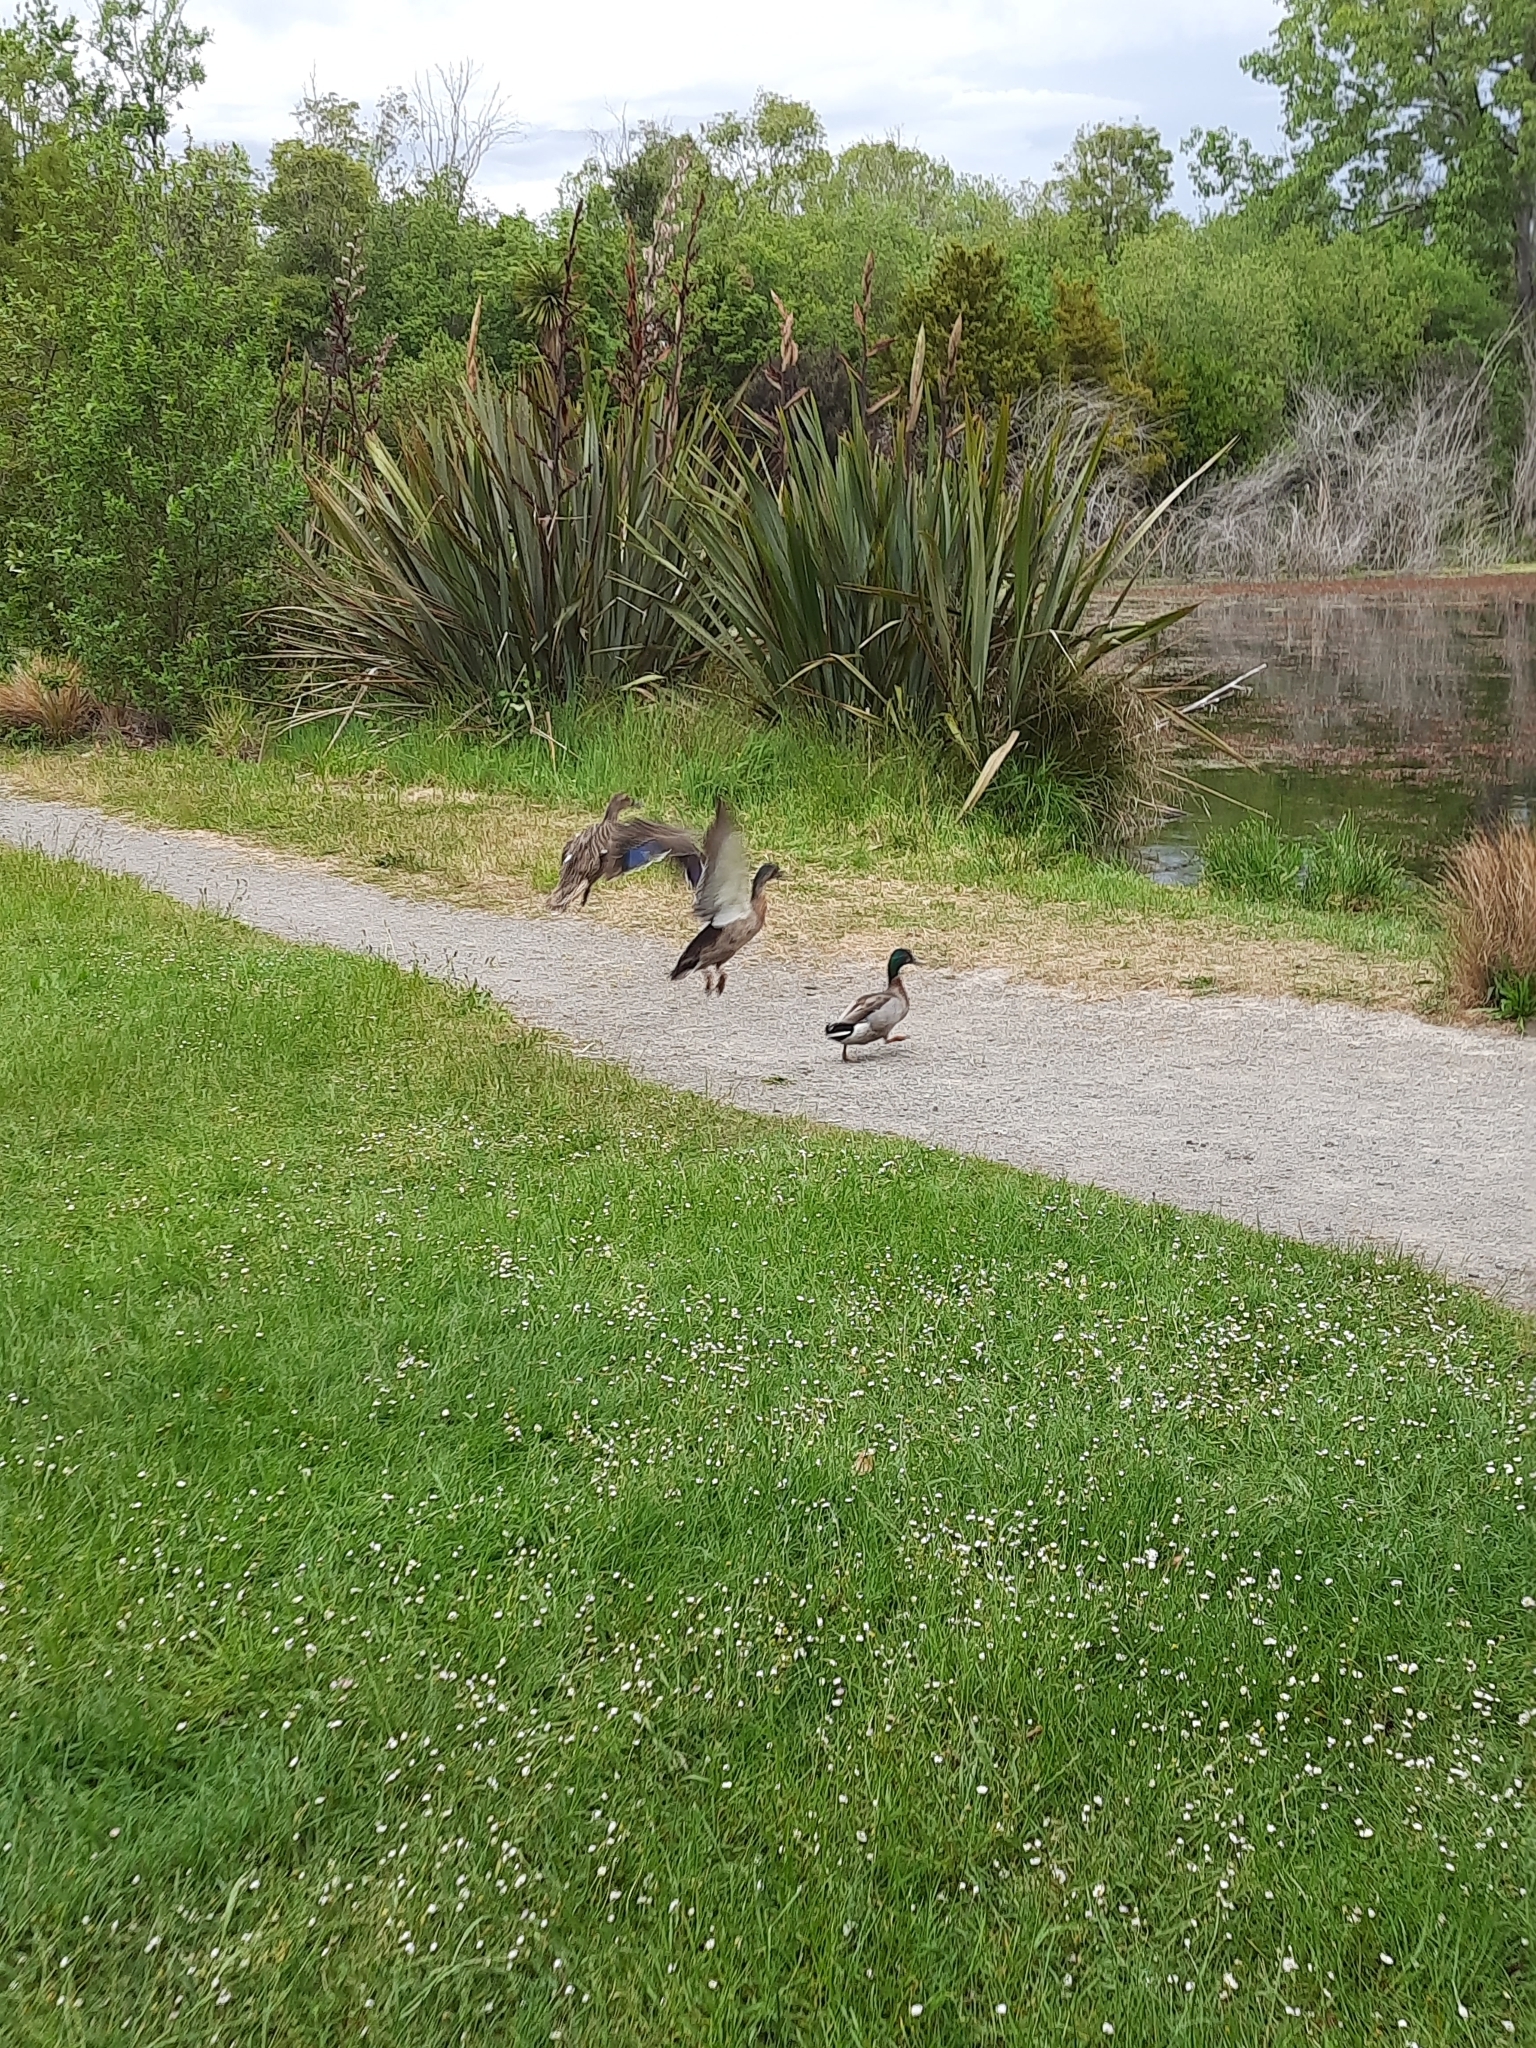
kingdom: Animalia
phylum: Chordata
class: Aves
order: Anseriformes
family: Anatidae
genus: Anas
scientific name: Anas platyrhynchos
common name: Mallard
